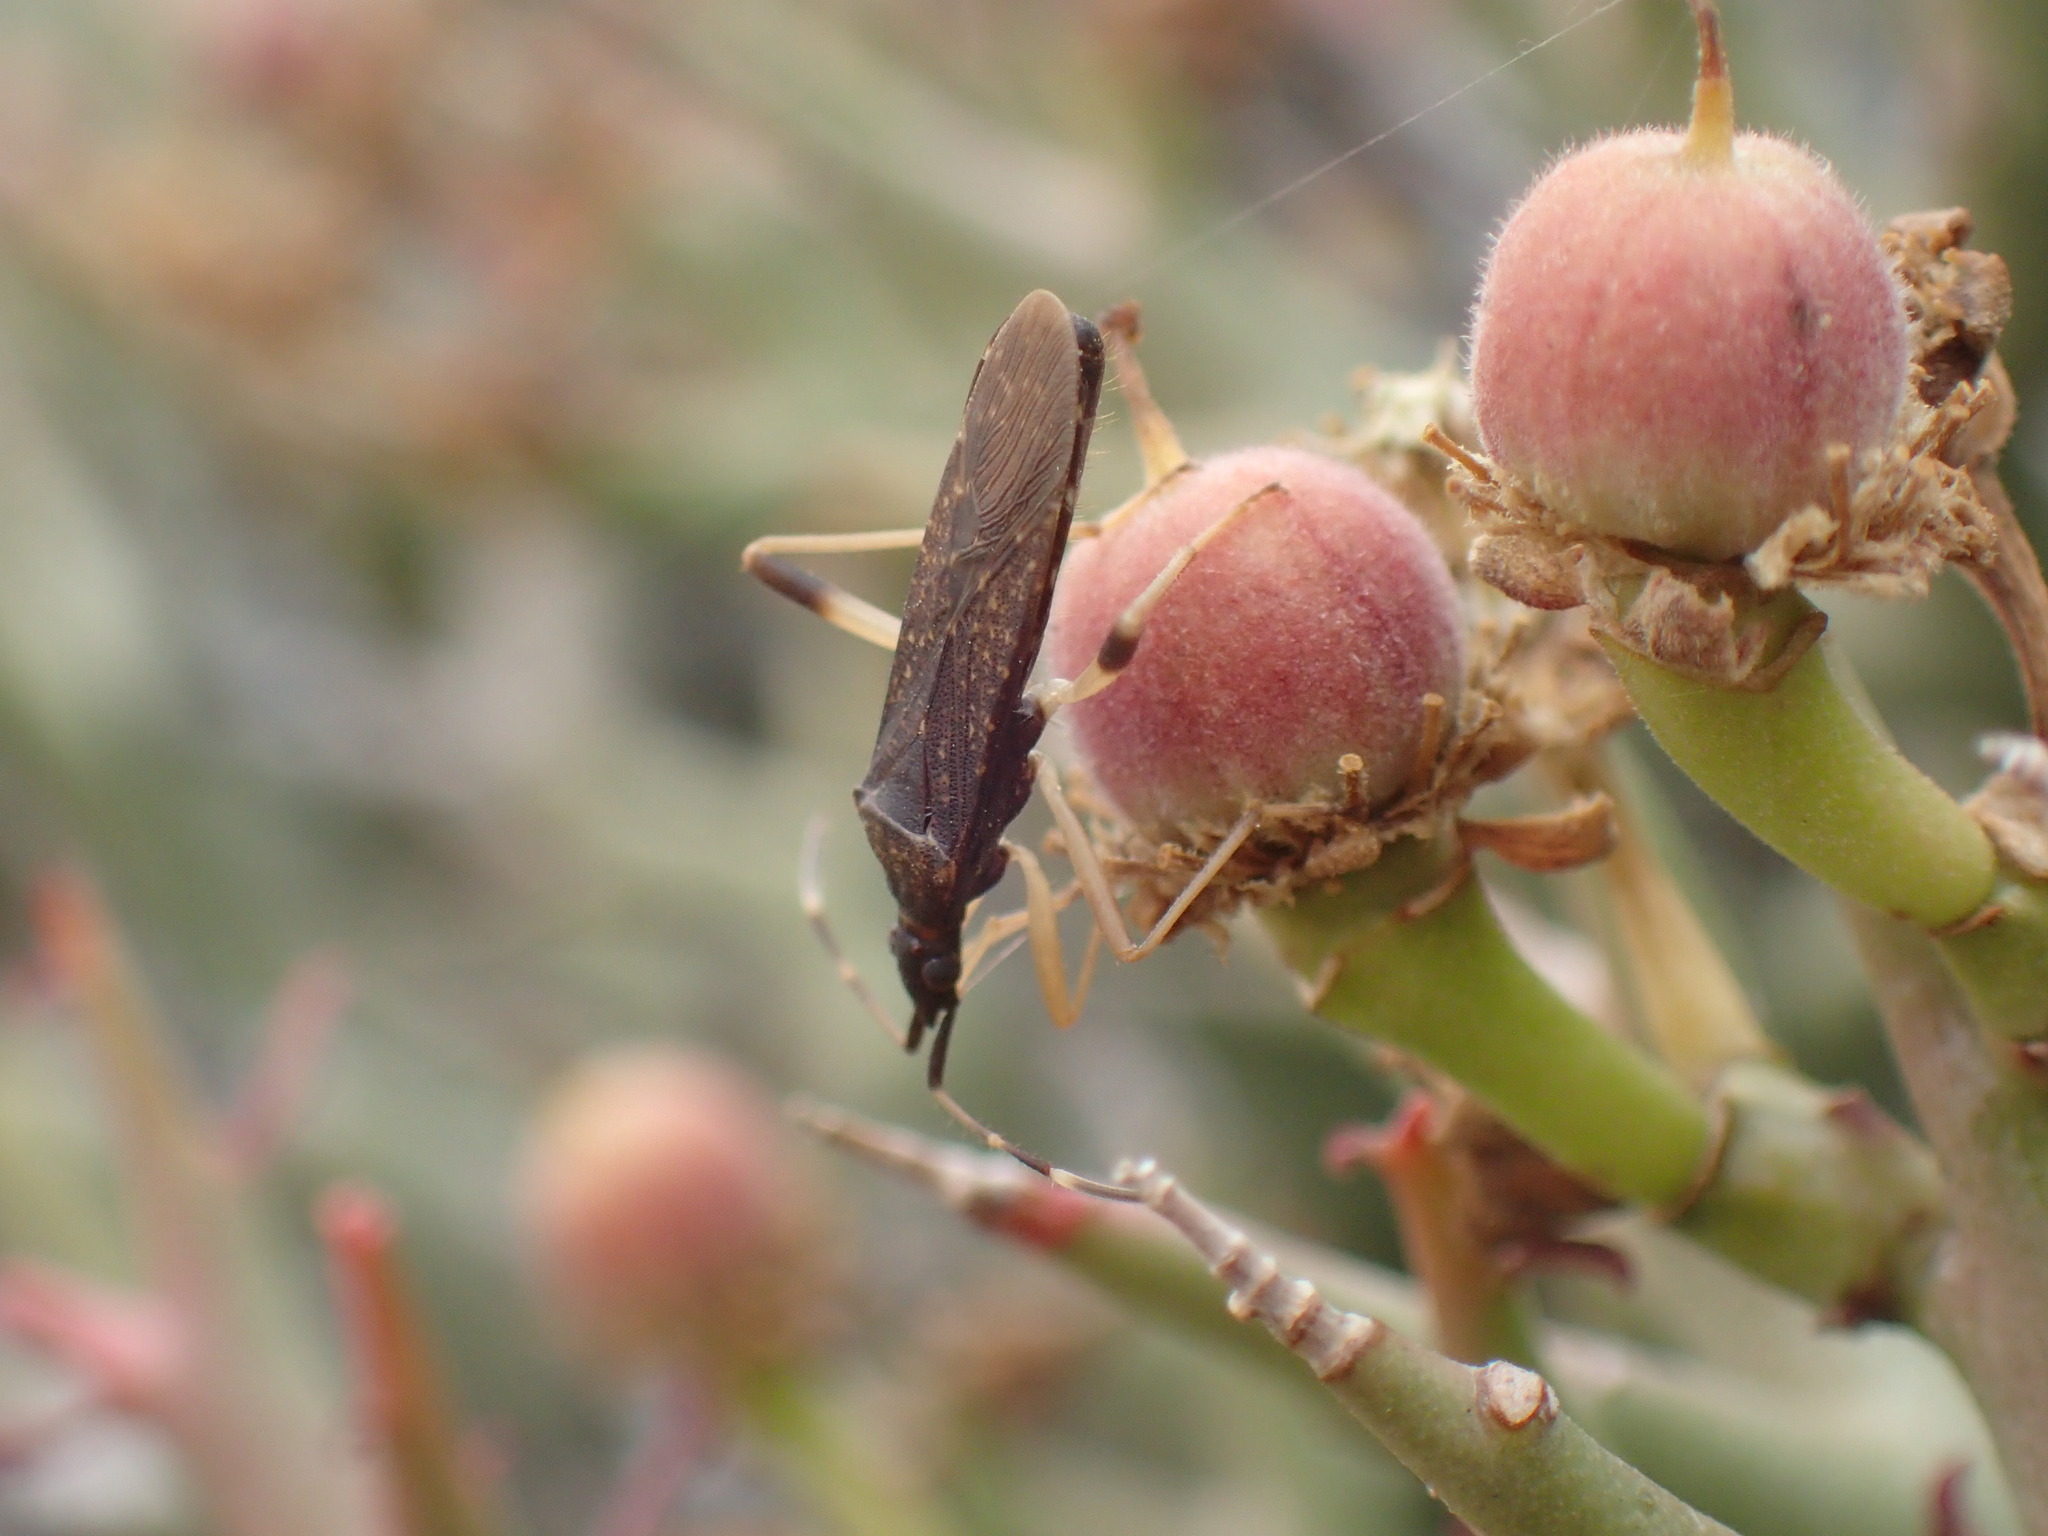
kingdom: Animalia
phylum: Arthropoda
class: Insecta
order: Hemiptera
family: Stenocephalidae
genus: Dicranocephalus
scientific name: Dicranocephalus schmitzi
